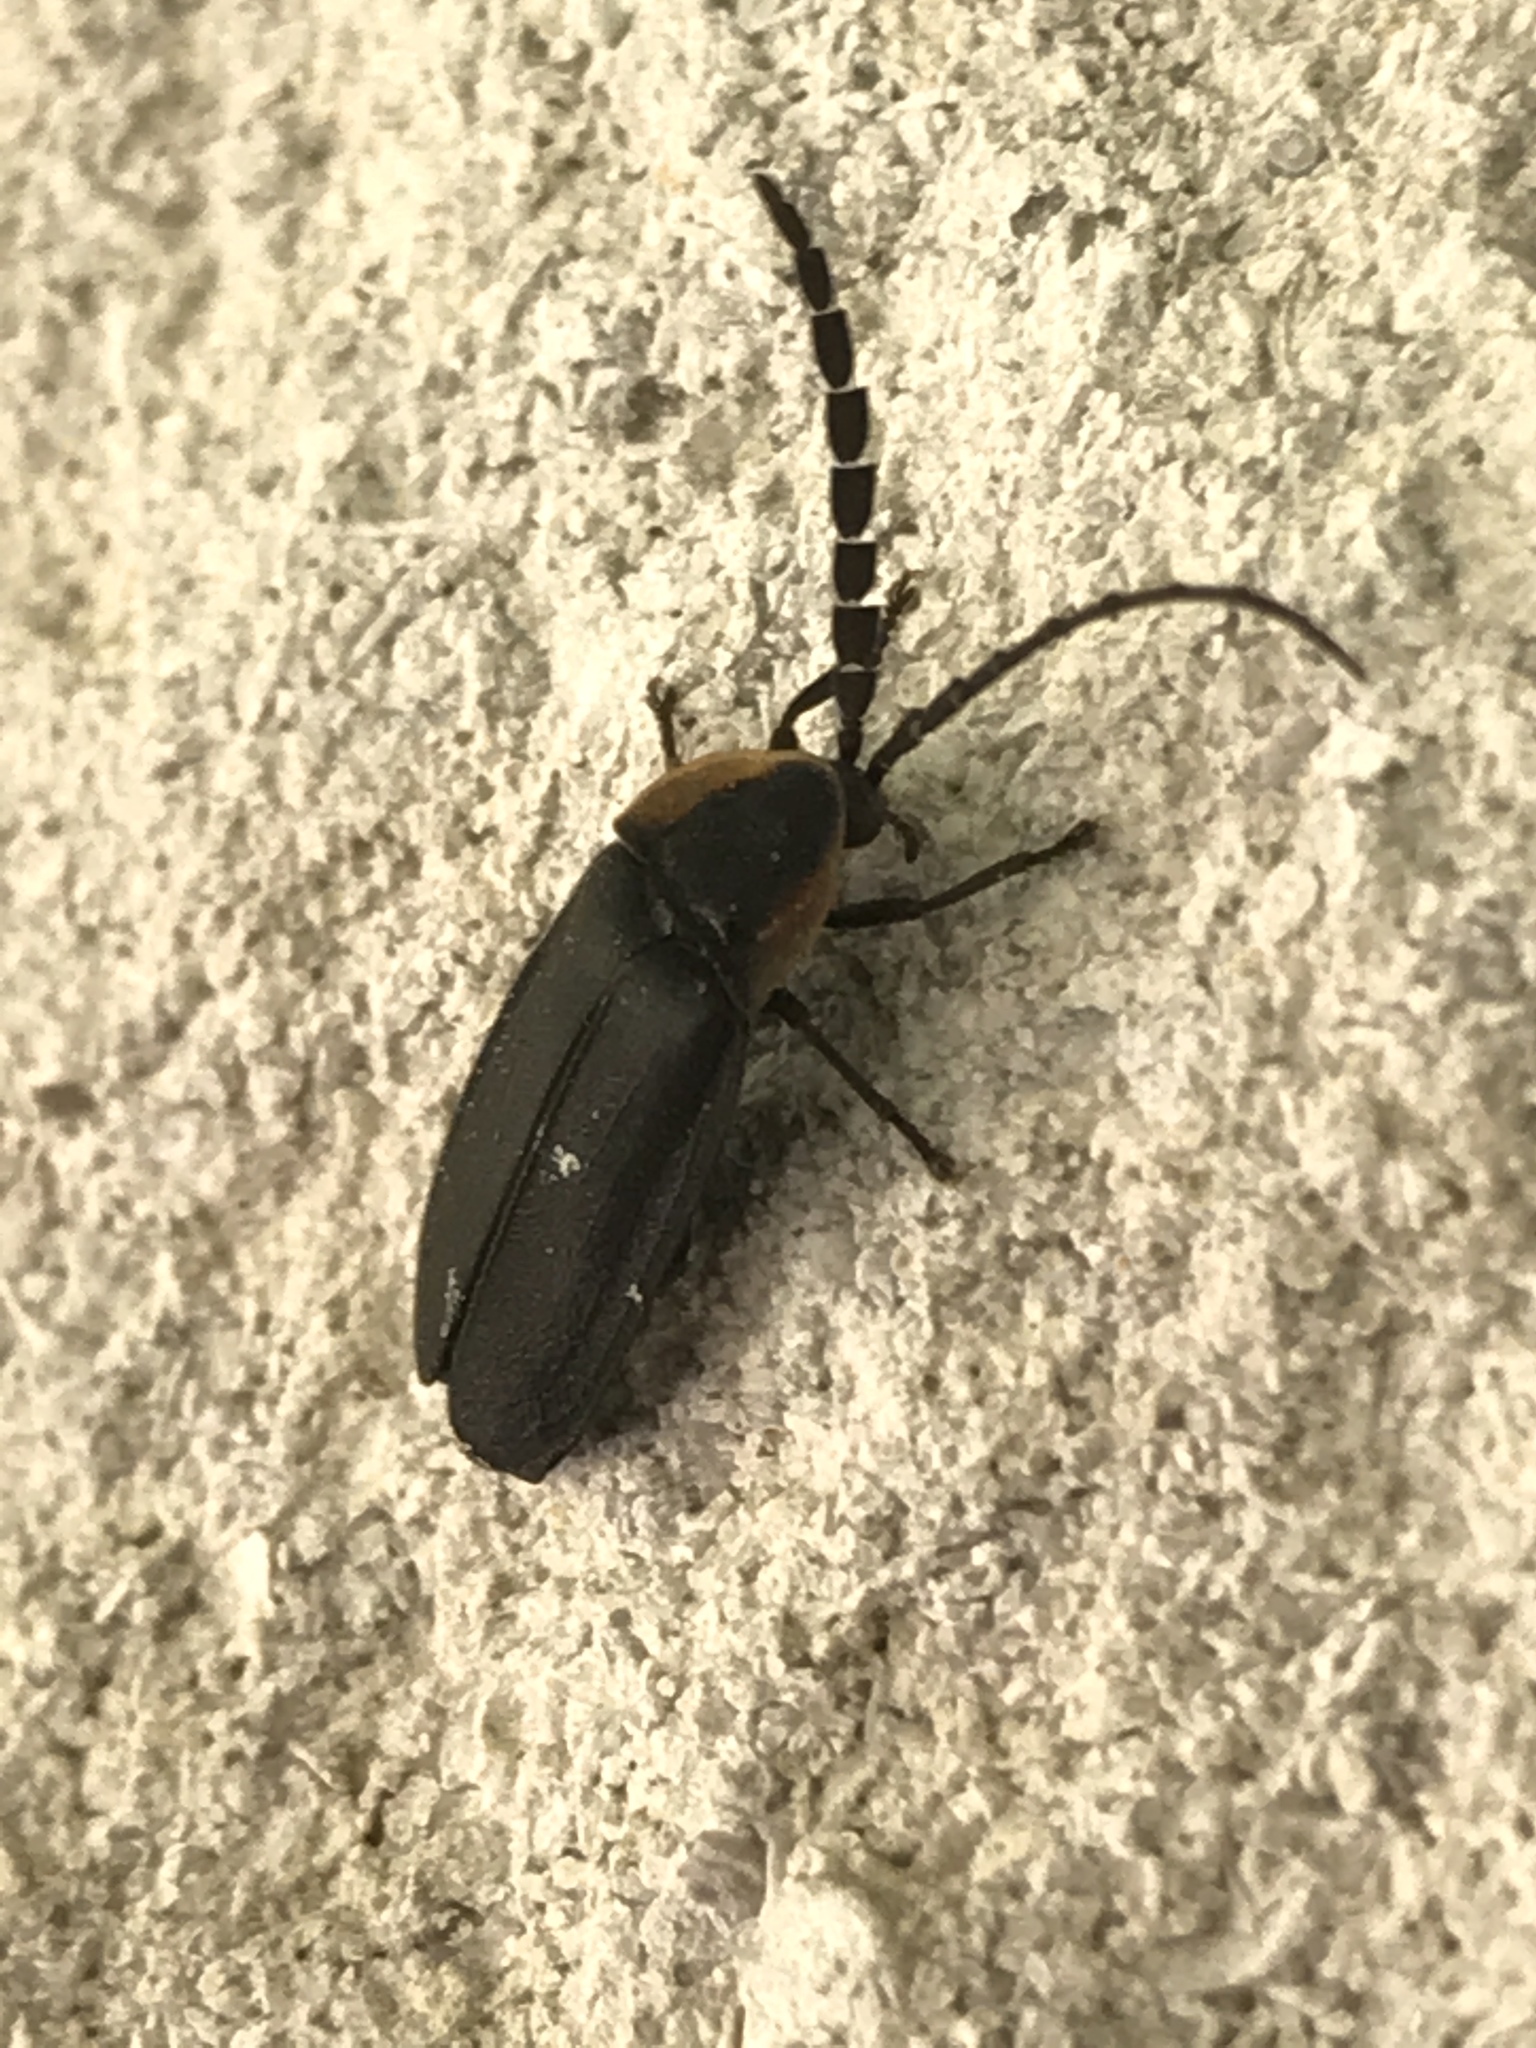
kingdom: Animalia
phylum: Arthropoda
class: Insecta
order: Coleoptera
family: Lampyridae
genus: Lucidota
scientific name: Lucidota atra
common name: Black firefly
